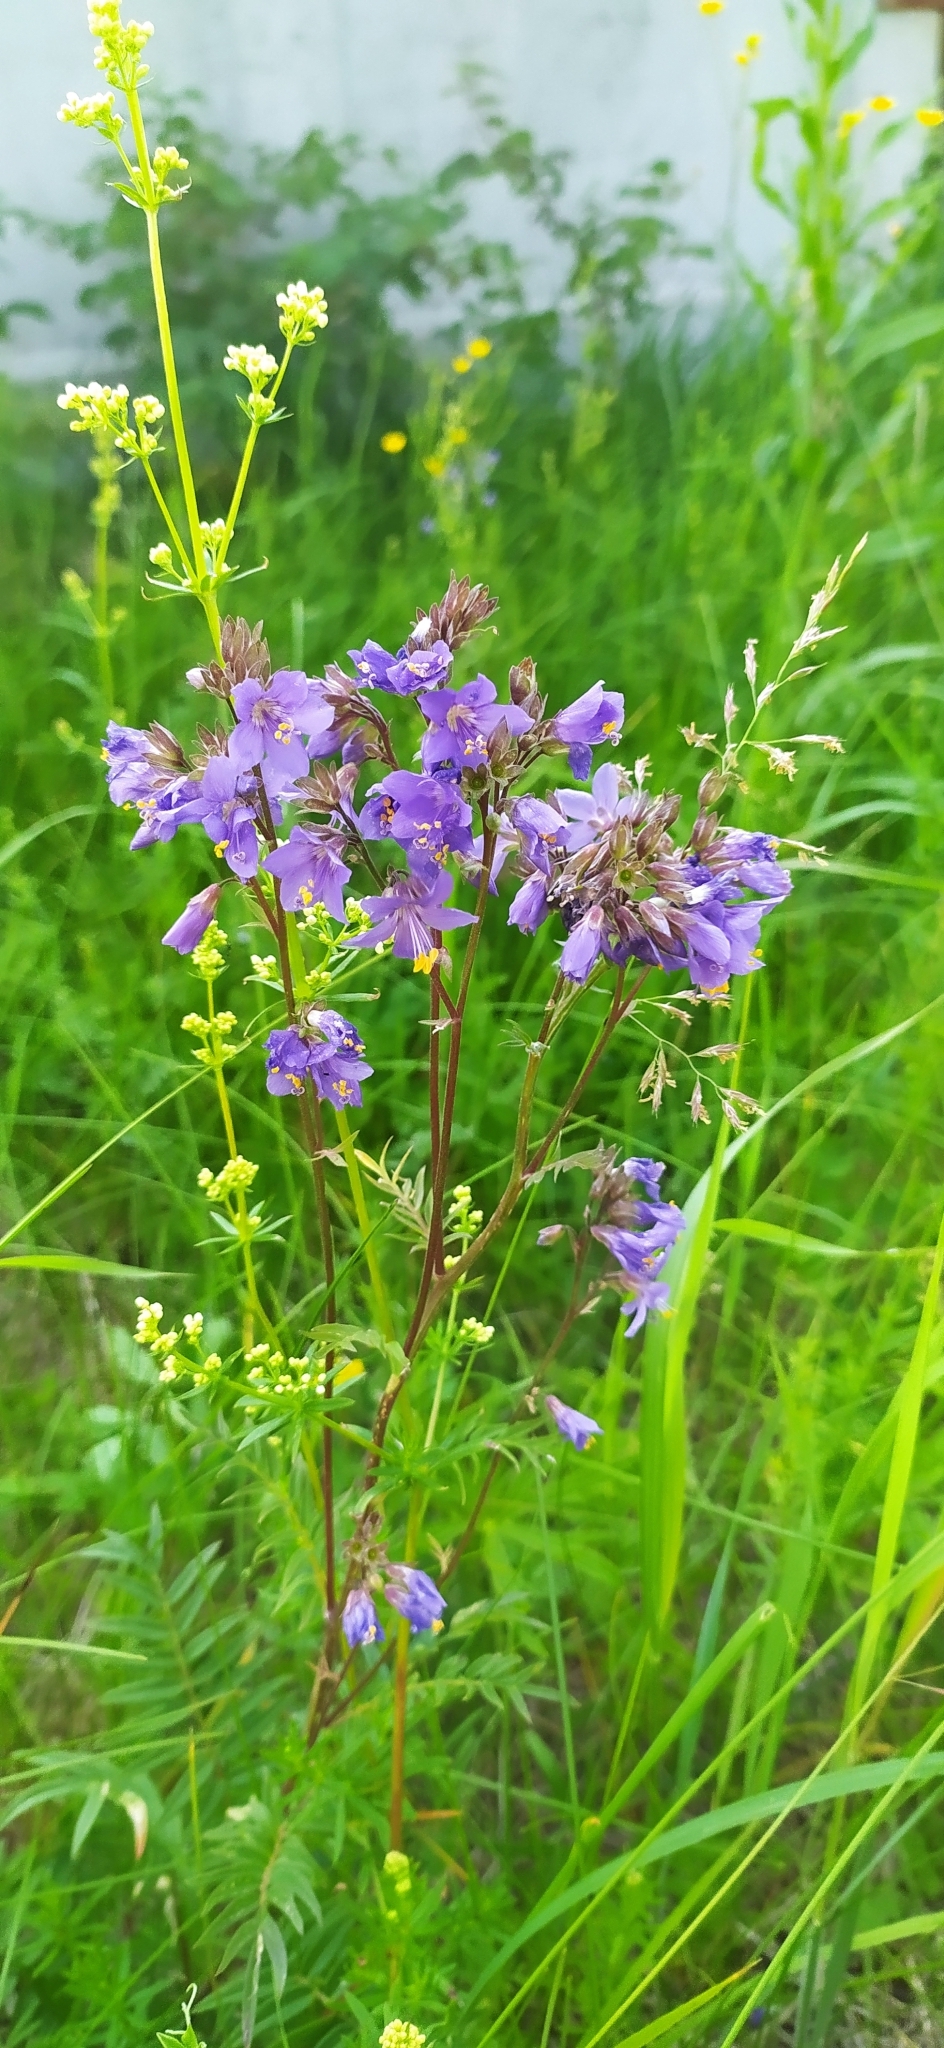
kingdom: Plantae
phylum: Tracheophyta
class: Magnoliopsida
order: Ericales
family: Polemoniaceae
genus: Polemonium
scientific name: Polemonium caeruleum
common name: Jacob's-ladder
